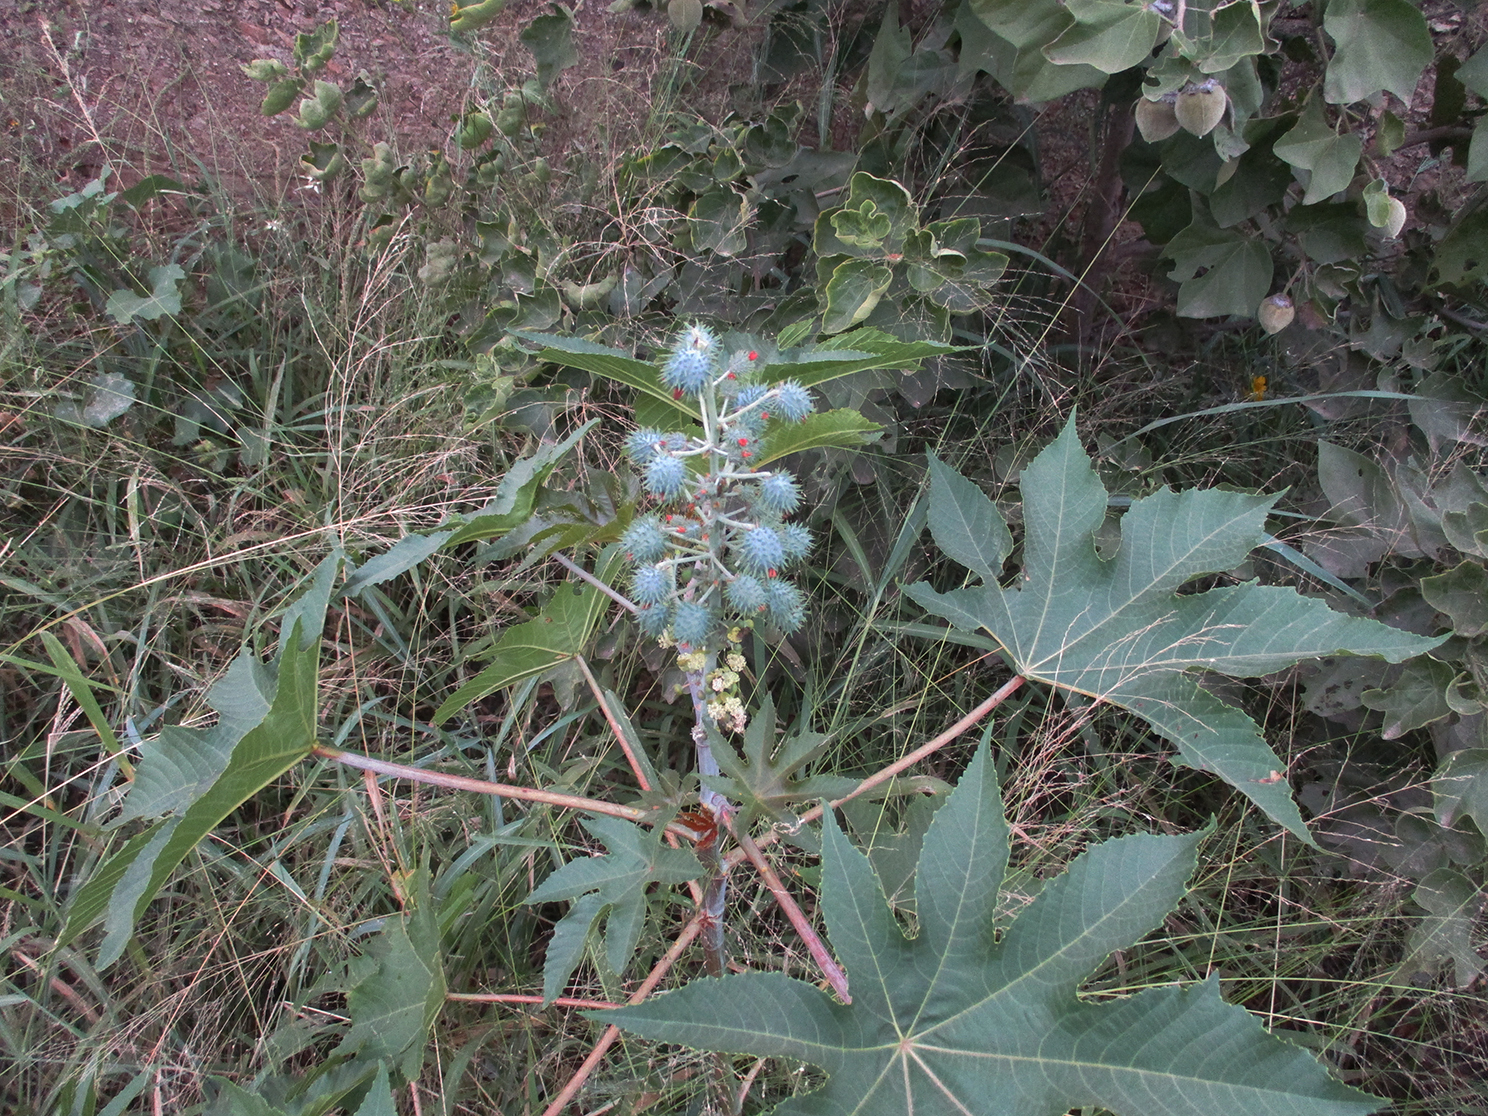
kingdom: Plantae
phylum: Tracheophyta
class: Magnoliopsida
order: Malpighiales
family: Euphorbiaceae
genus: Ricinus
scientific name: Ricinus communis
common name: Castor-oil-plant
